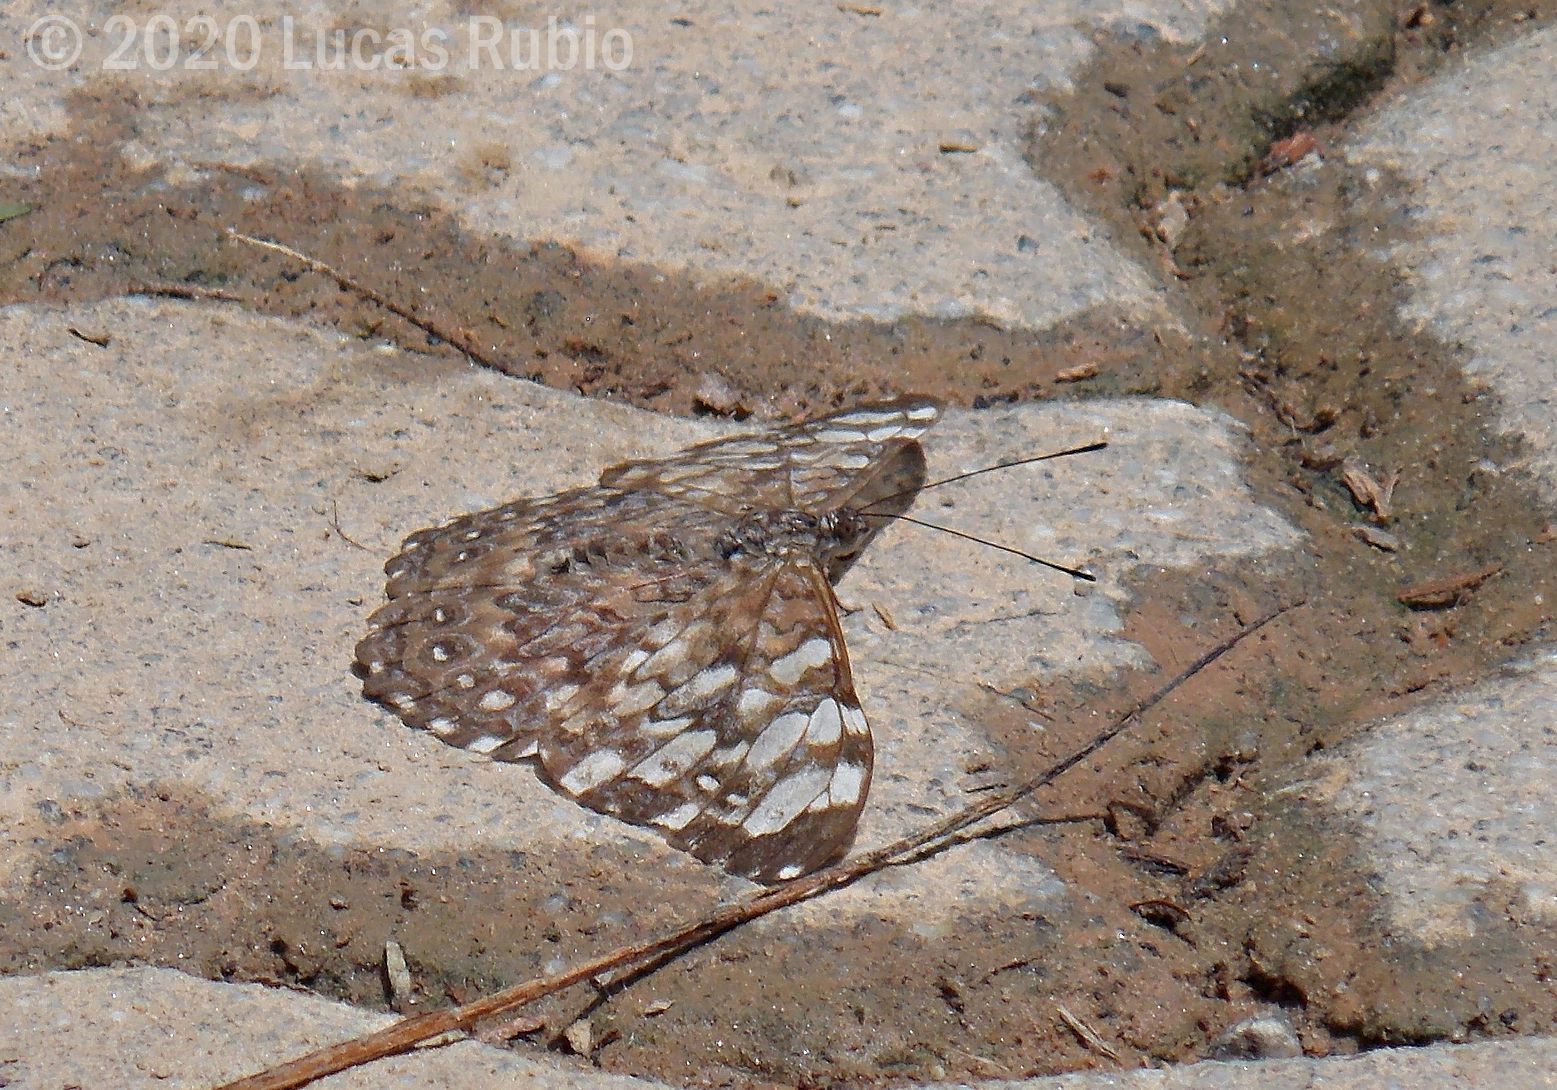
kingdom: Animalia
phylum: Arthropoda
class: Insecta
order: Lepidoptera
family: Nymphalidae
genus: Hamadryas
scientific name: Hamadryas epinome
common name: Epinome cracker
